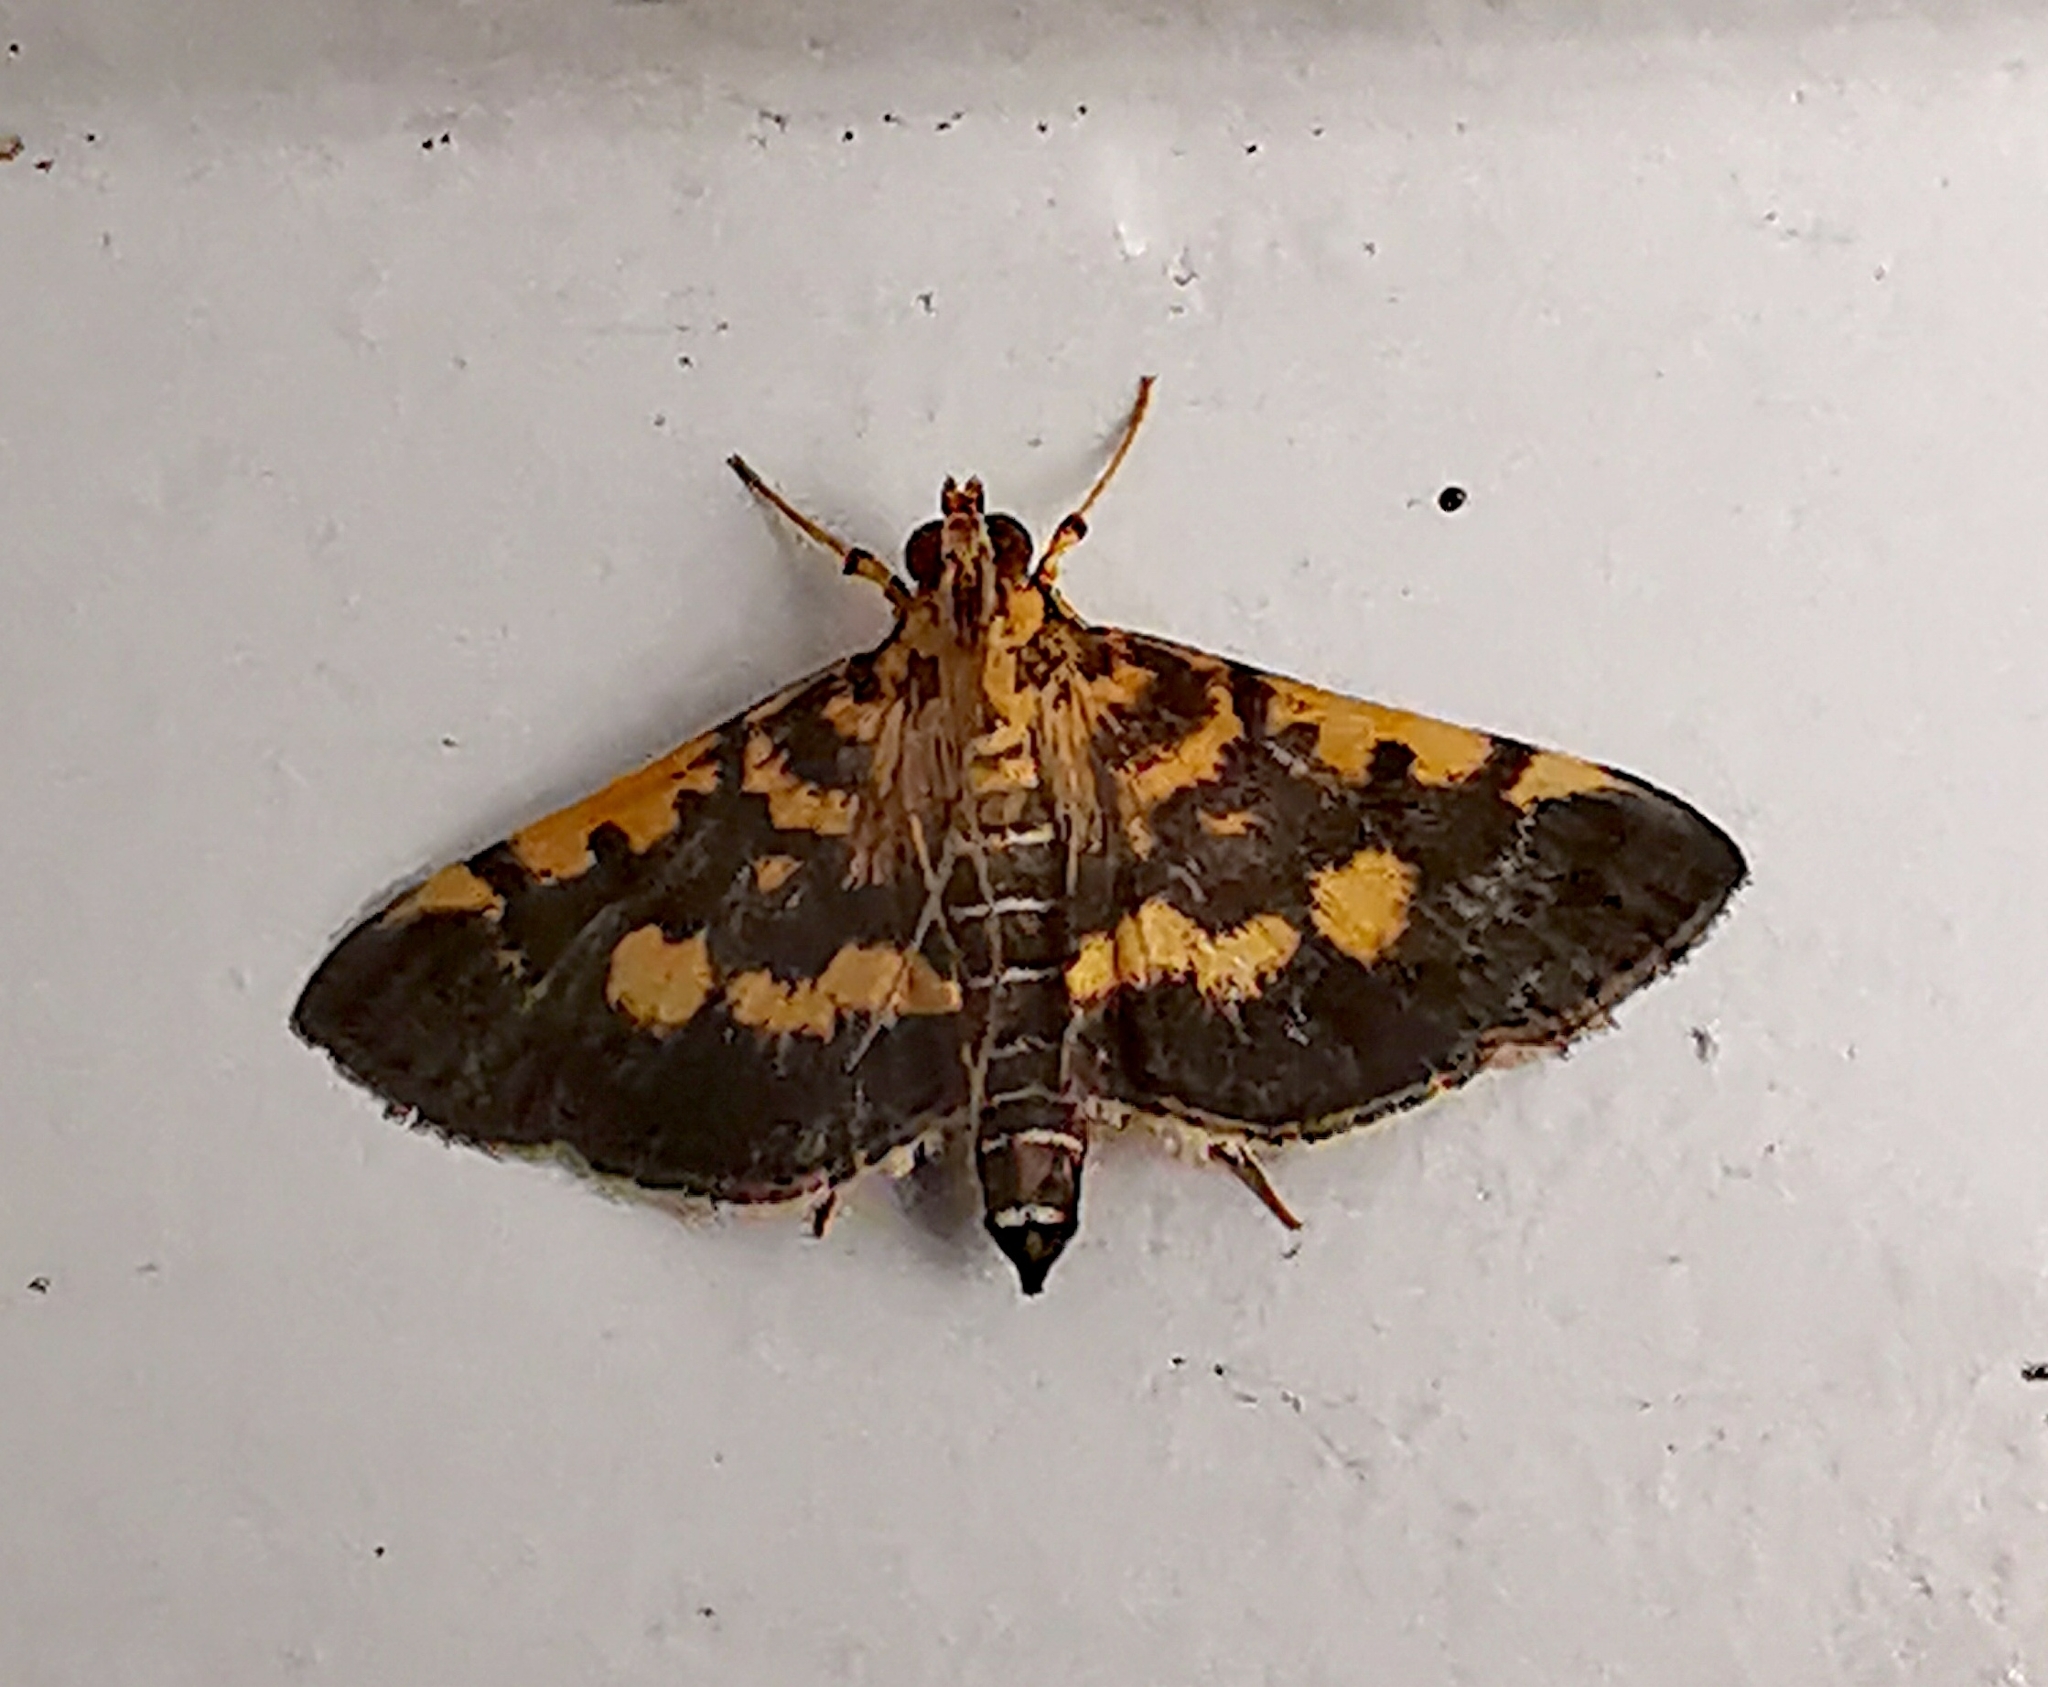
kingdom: Animalia
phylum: Arthropoda
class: Insecta
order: Lepidoptera
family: Crambidae
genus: Omiodes
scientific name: Omiodes diemenalis
